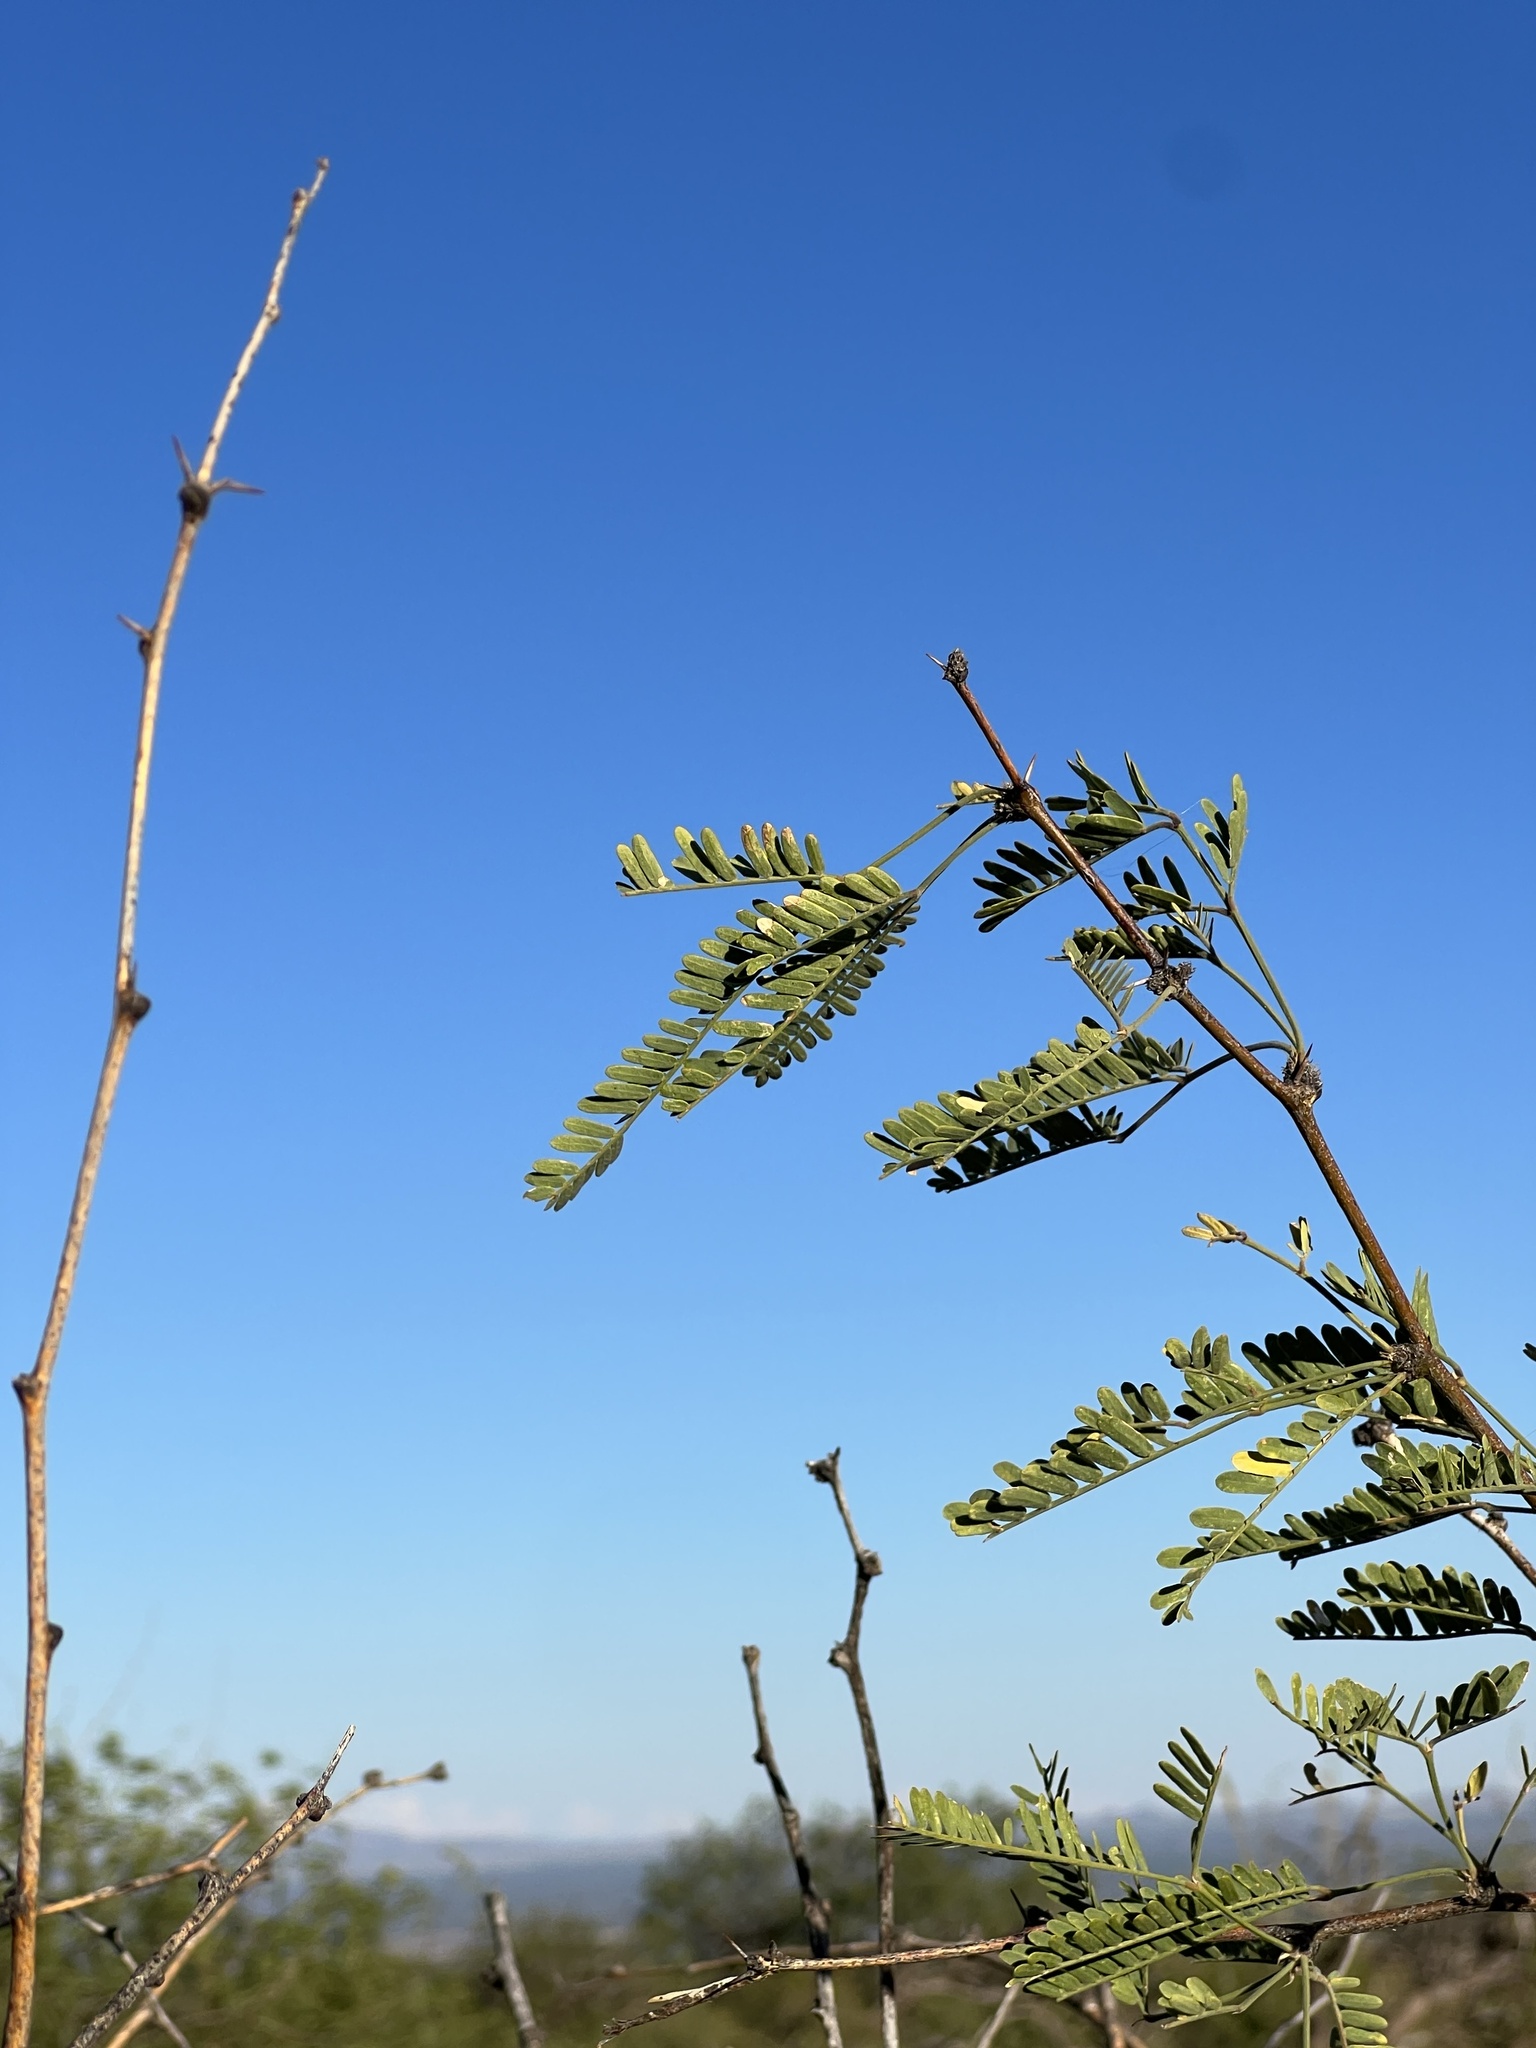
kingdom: Plantae
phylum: Tracheophyta
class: Magnoliopsida
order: Fabales
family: Fabaceae
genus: Prosopis
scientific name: Prosopis velutina
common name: Velvet mesquite
